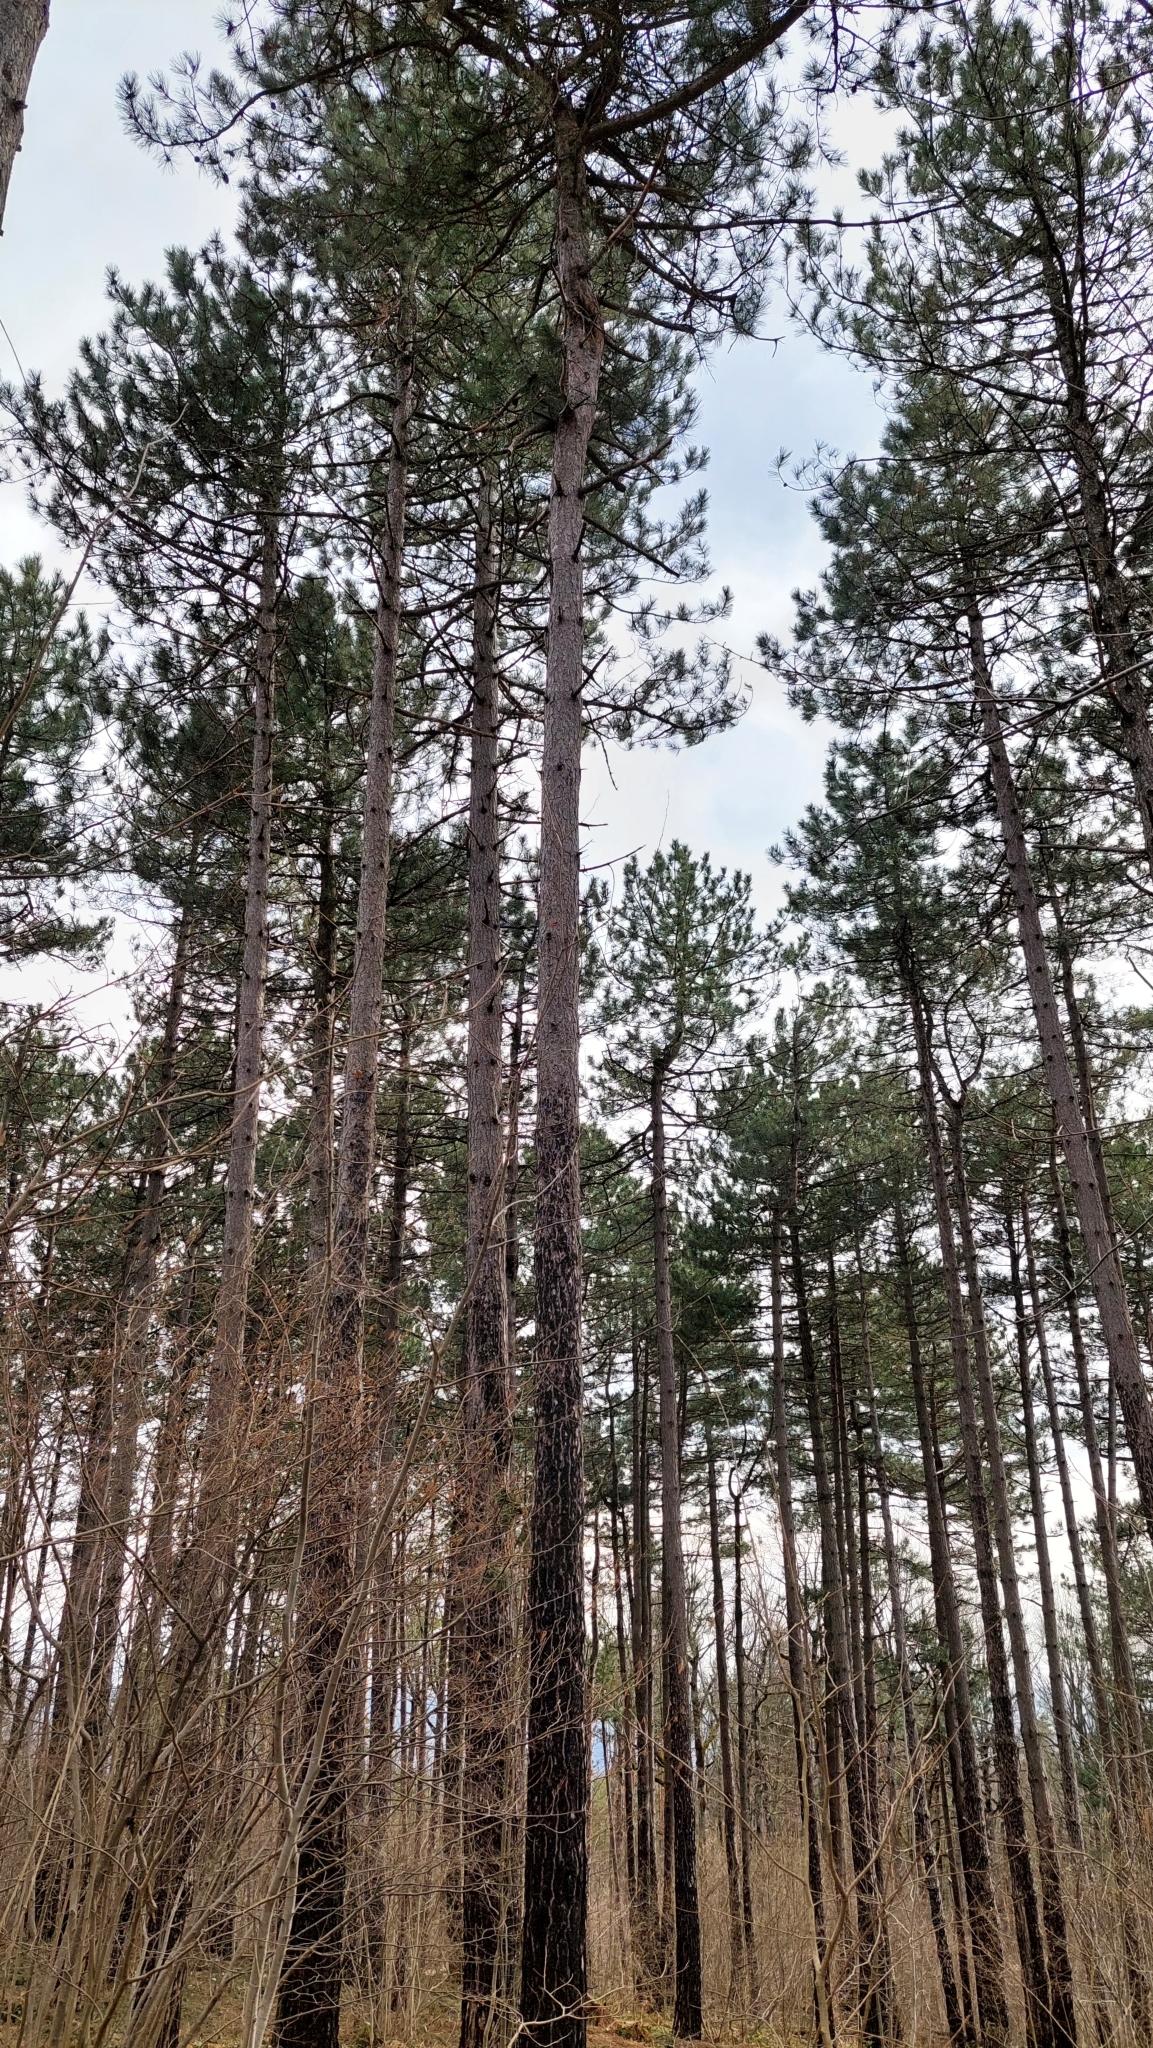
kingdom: Plantae
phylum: Tracheophyta
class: Pinopsida
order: Pinales
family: Pinaceae
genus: Pinus
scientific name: Pinus nigra
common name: Austrian pine
